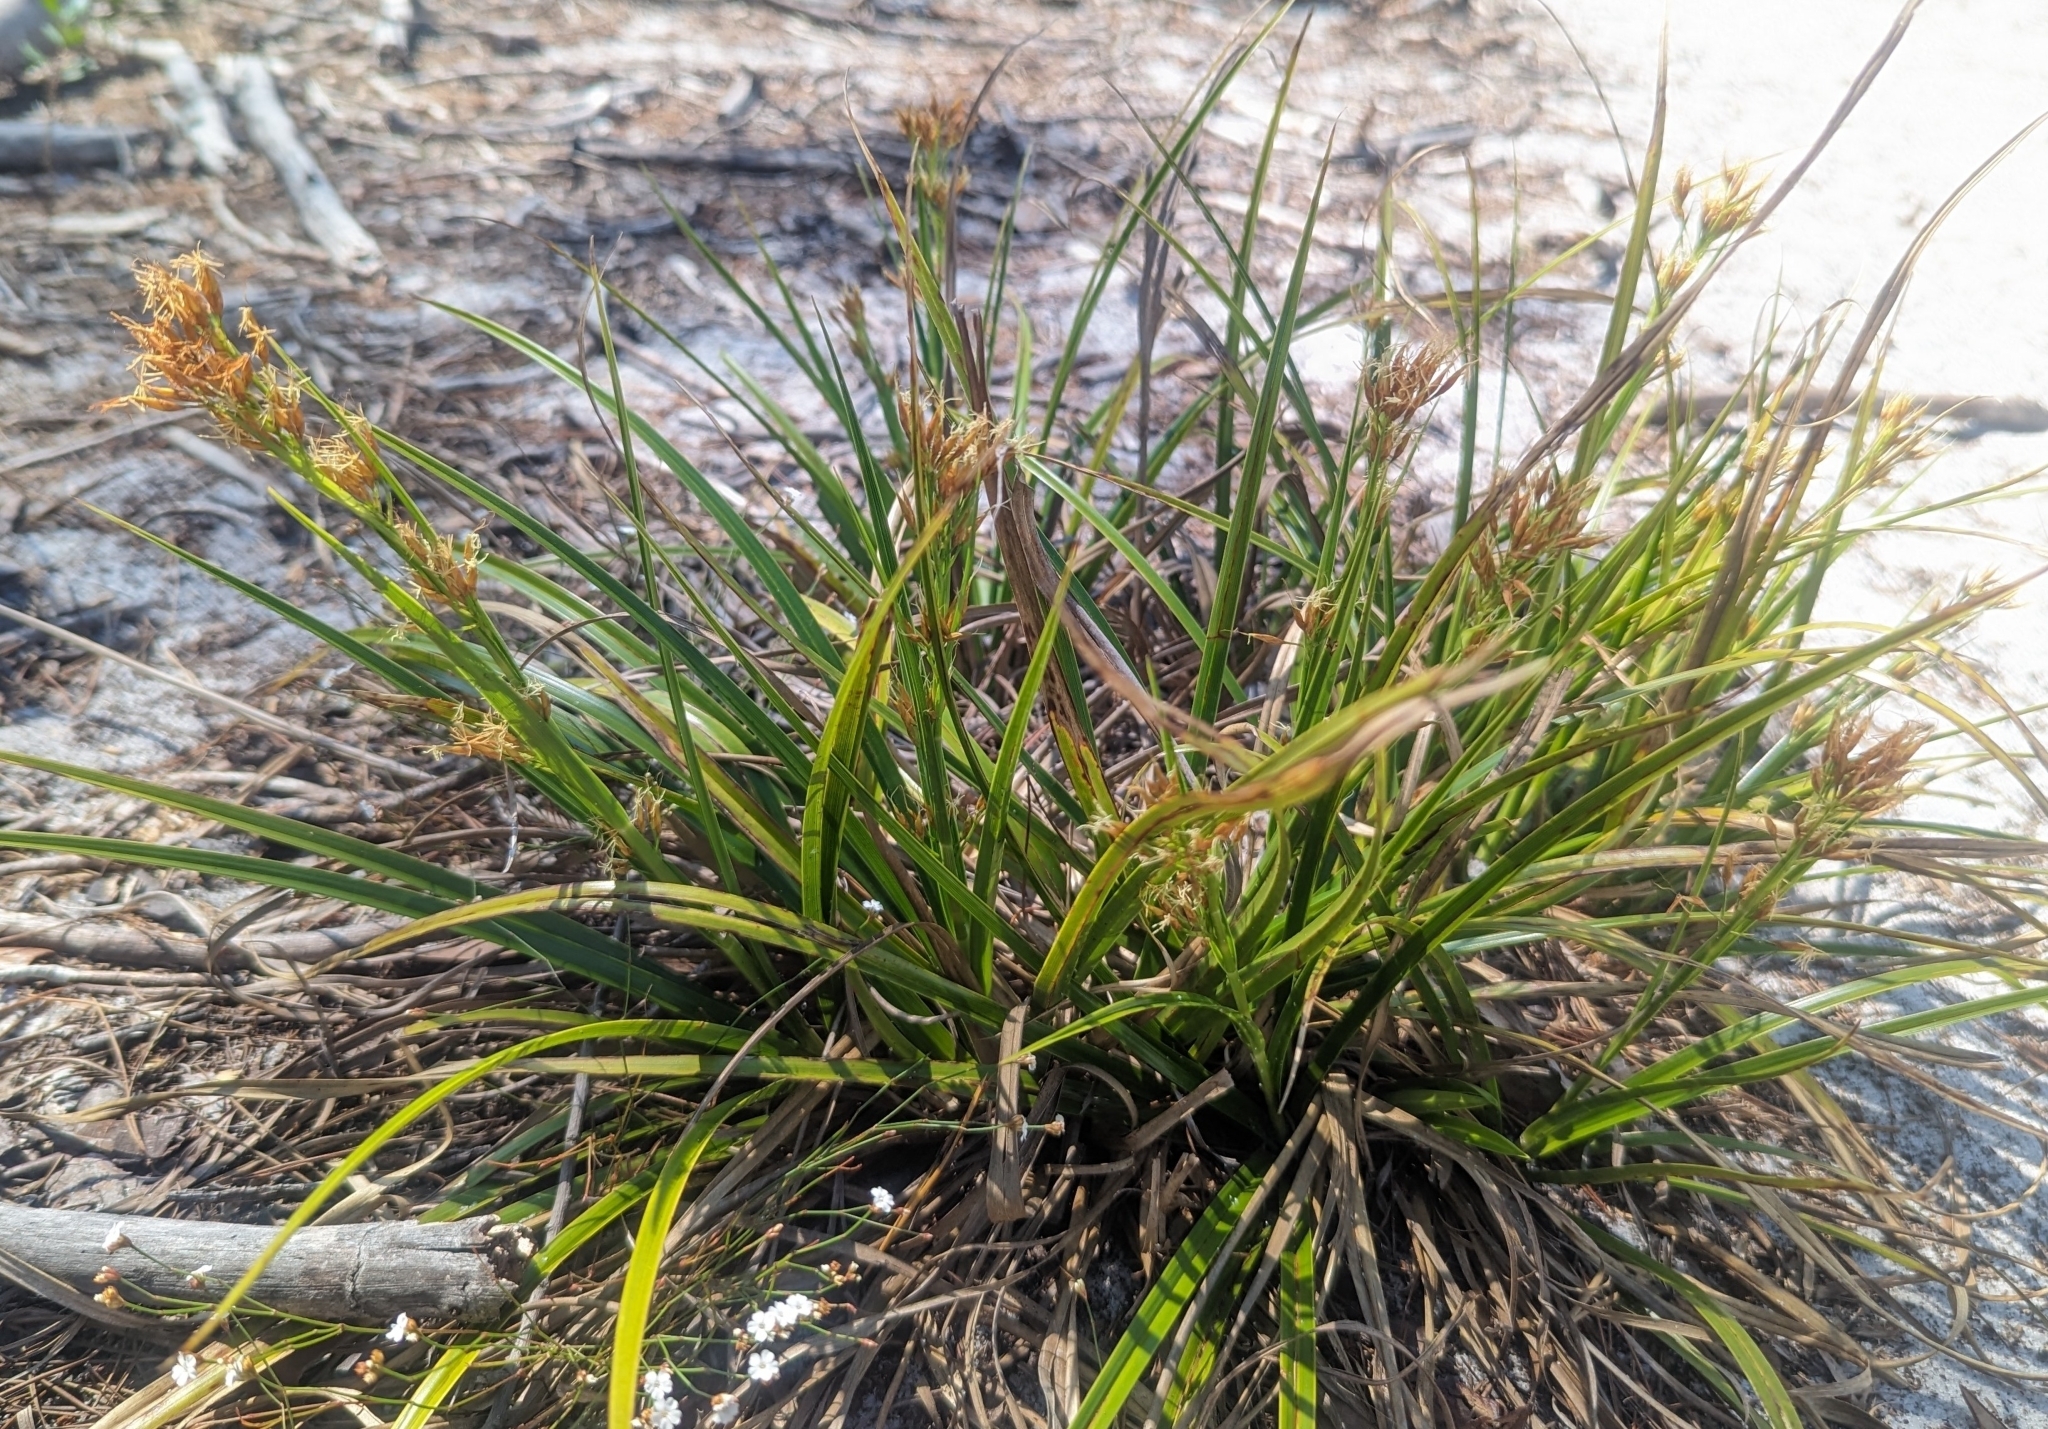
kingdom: Plantae
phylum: Tracheophyta
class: Liliopsida
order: Poales
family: Cyperaceae
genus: Rhynchospora
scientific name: Rhynchospora megalocarpa
